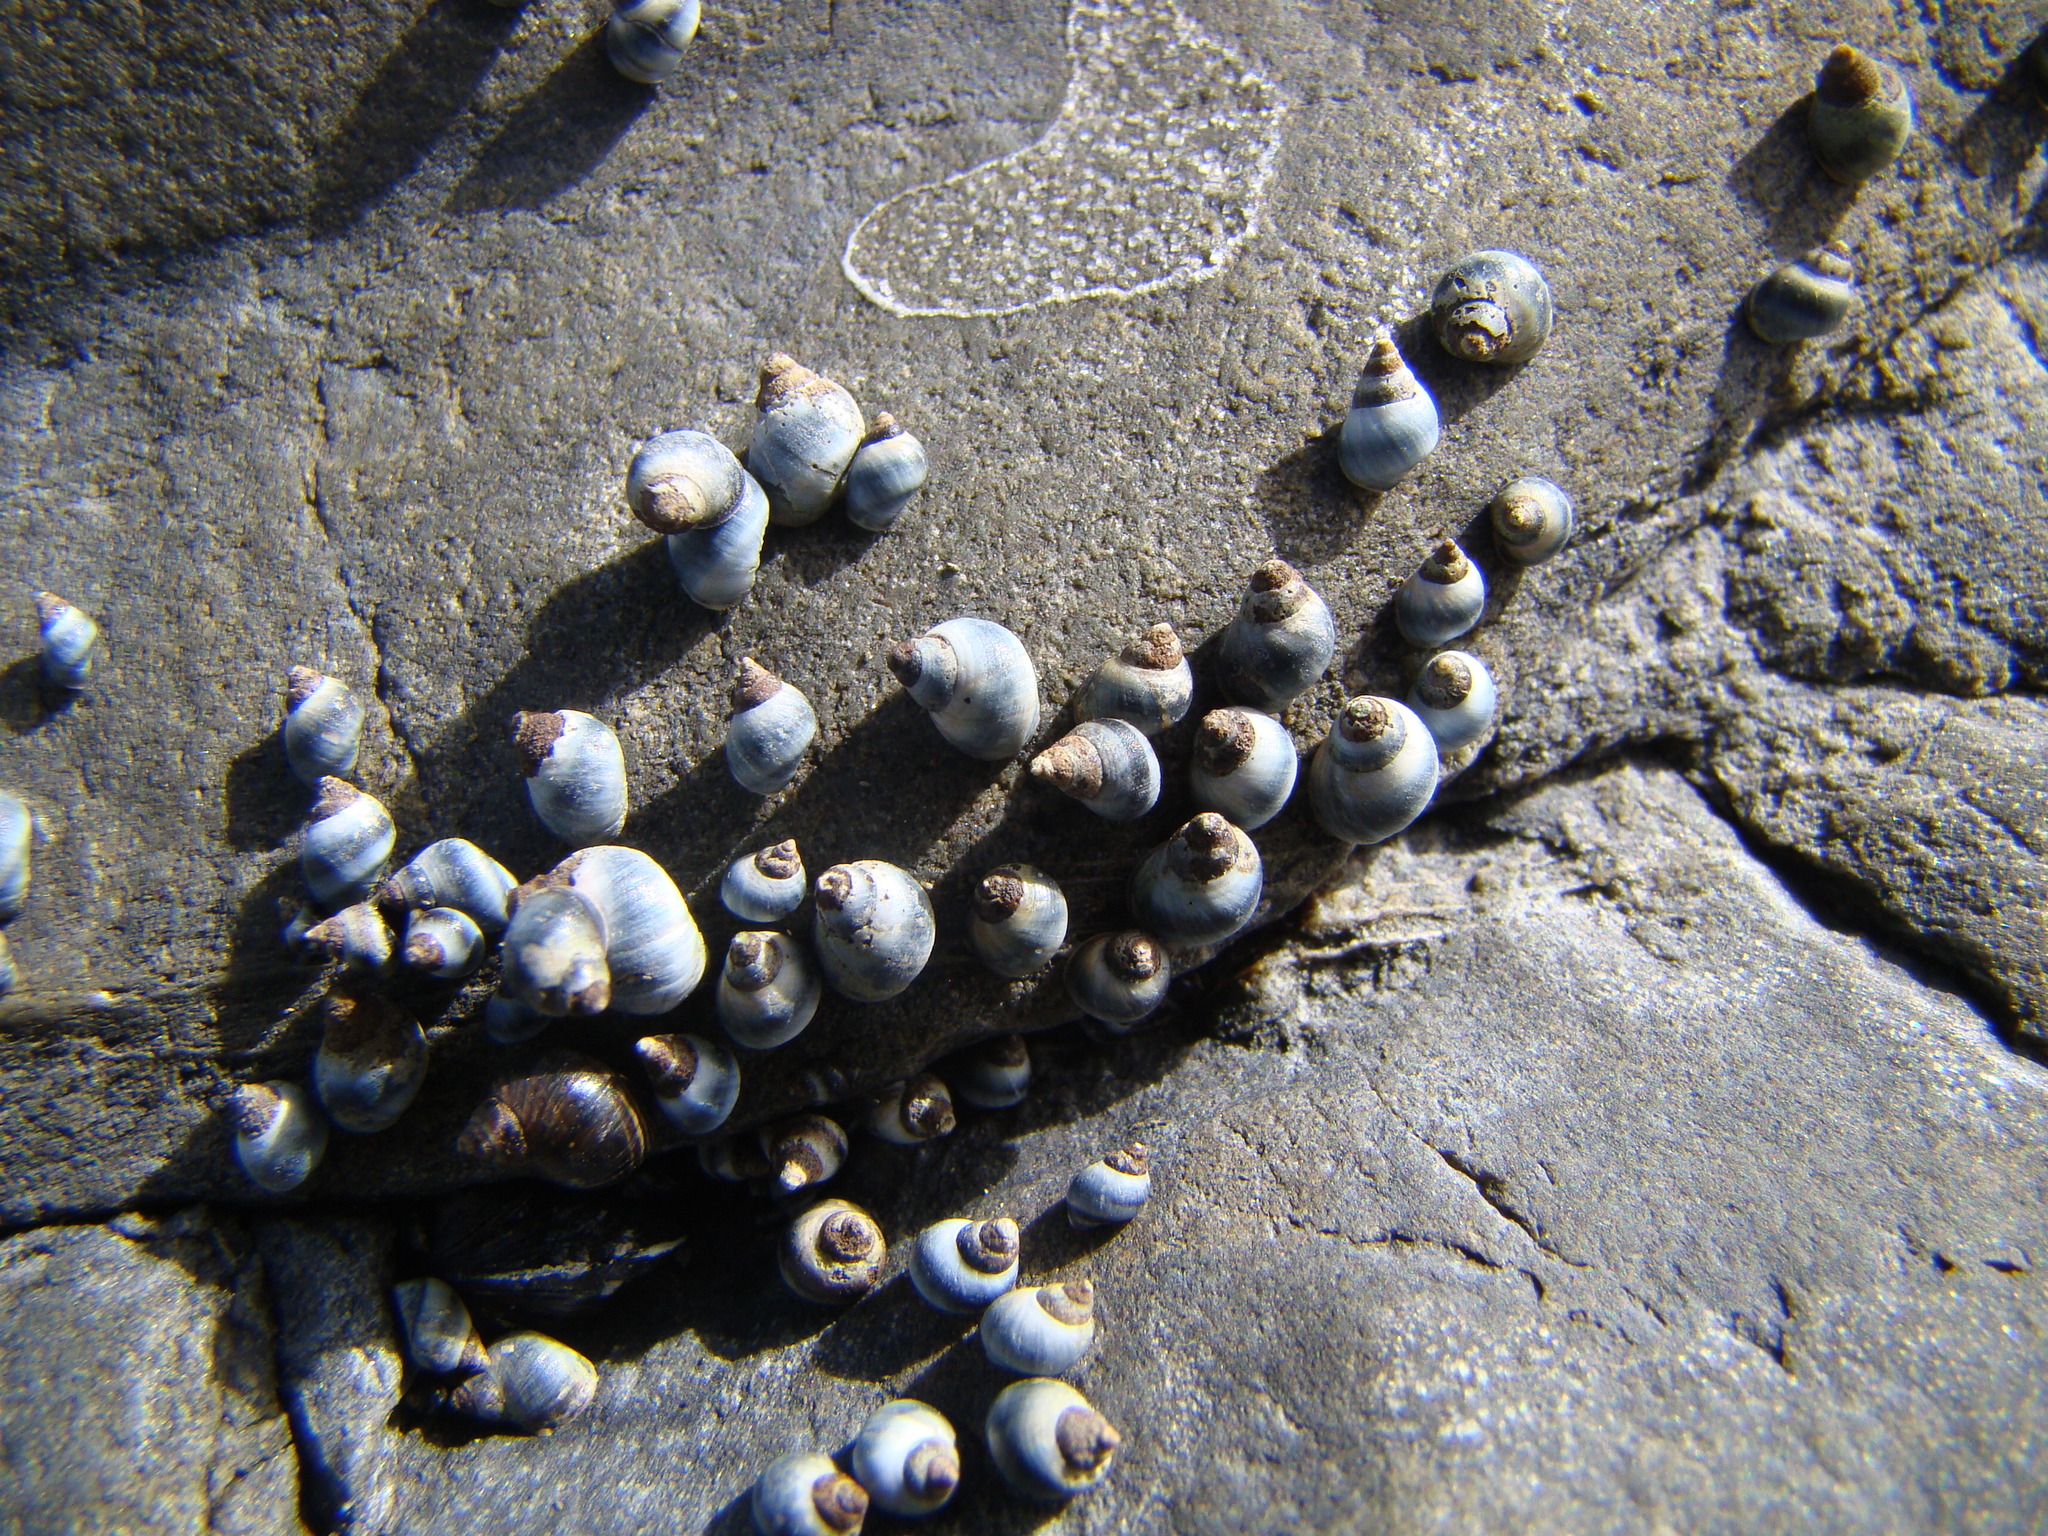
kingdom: Animalia
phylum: Mollusca
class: Gastropoda
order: Littorinimorpha
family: Littorinidae
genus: Austrolittorina
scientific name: Austrolittorina antipodum
